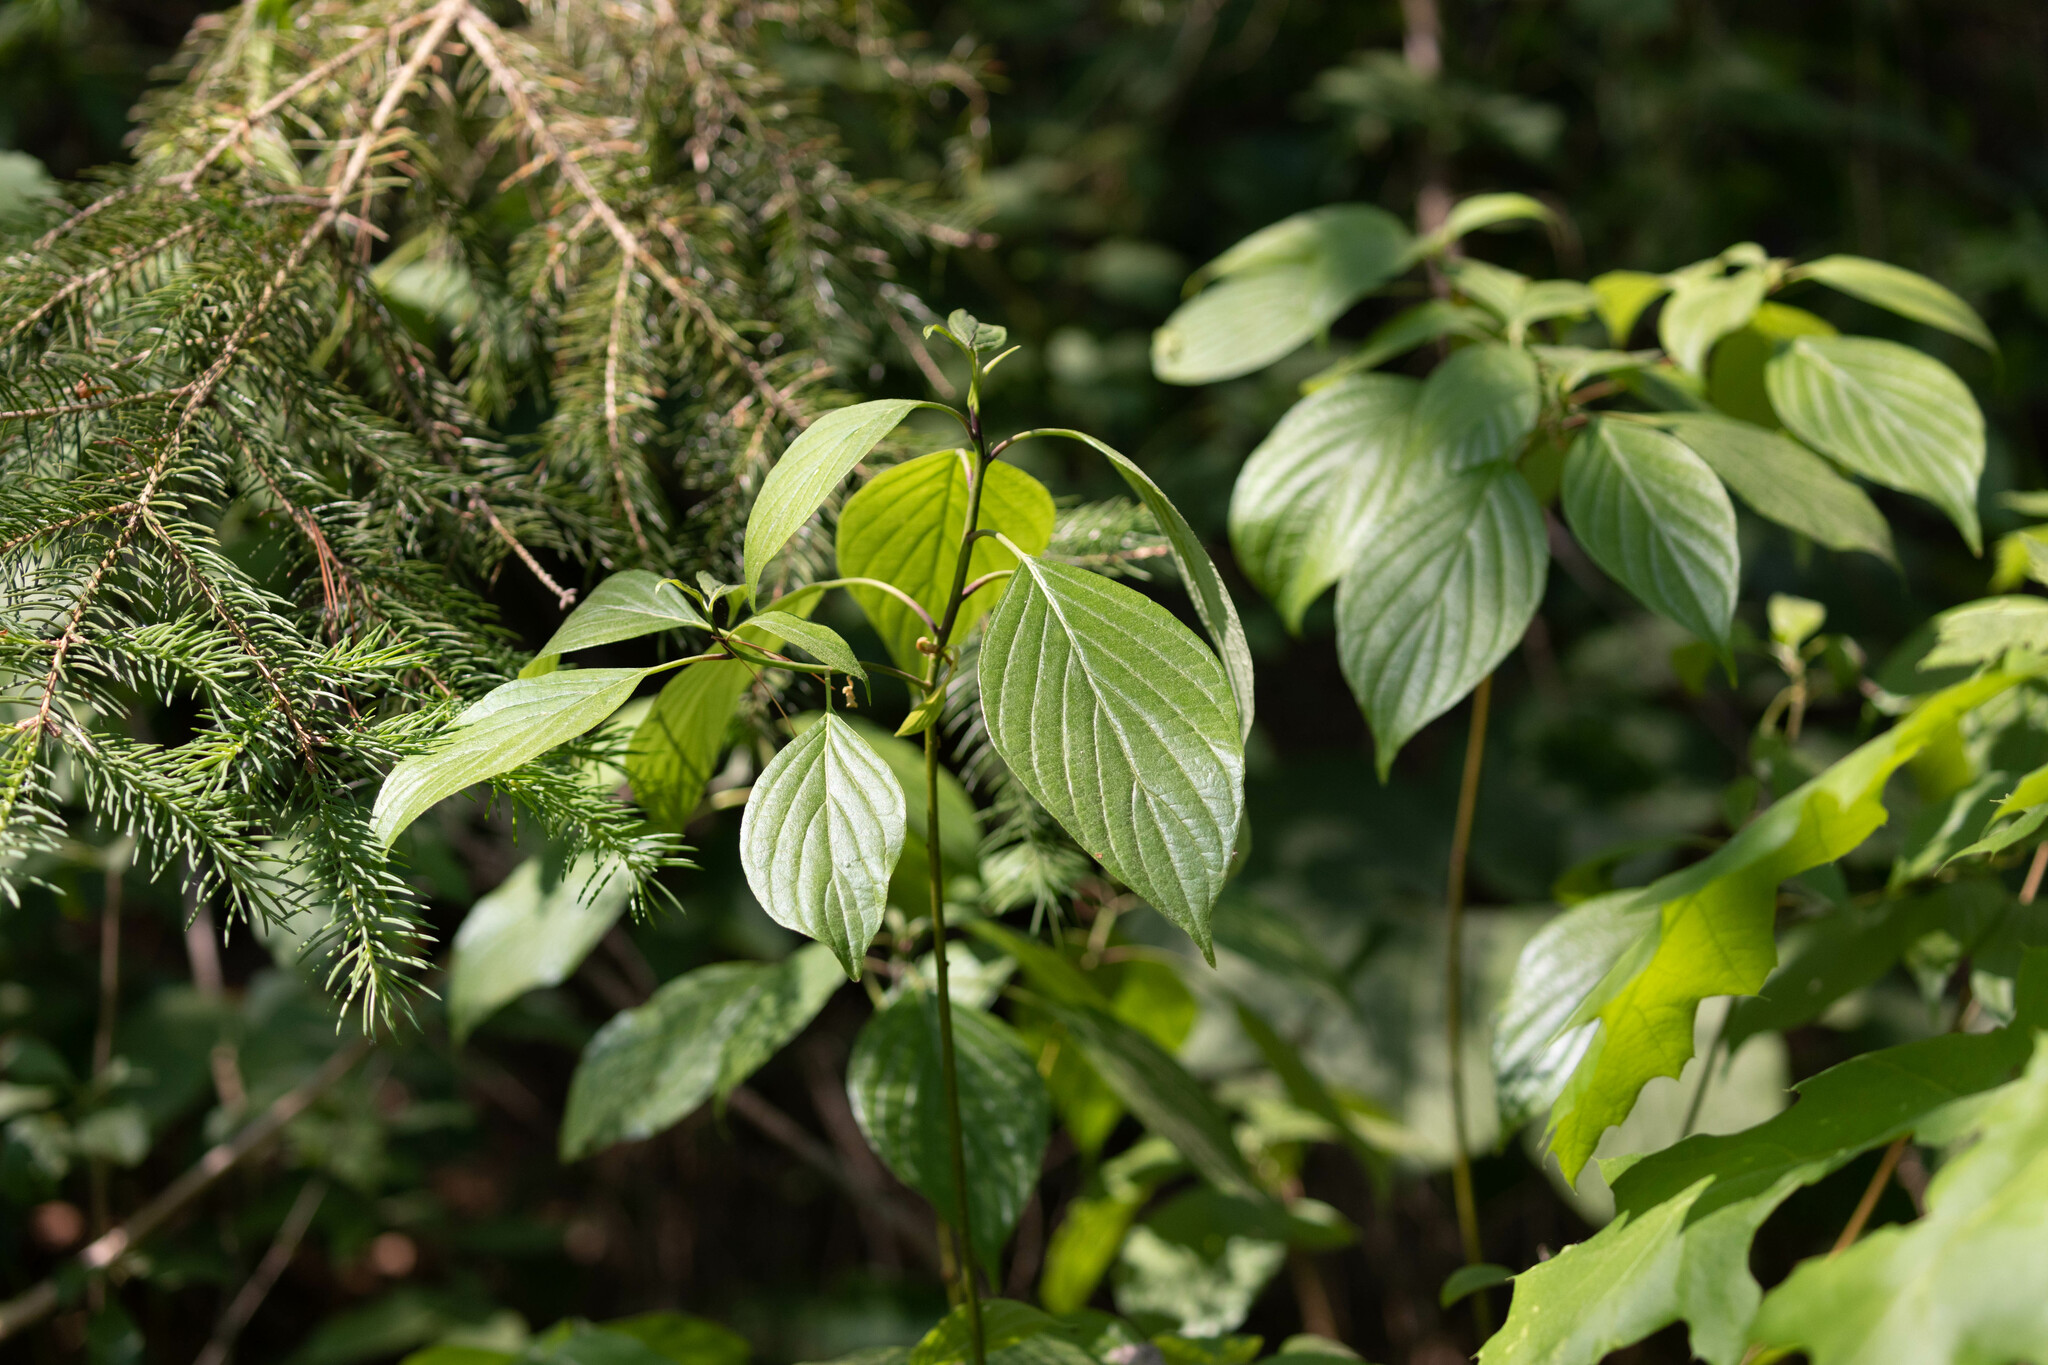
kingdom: Plantae
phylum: Tracheophyta
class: Magnoliopsida
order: Cornales
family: Cornaceae
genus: Cornus
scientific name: Cornus alternifolia
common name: Pagoda dogwood
